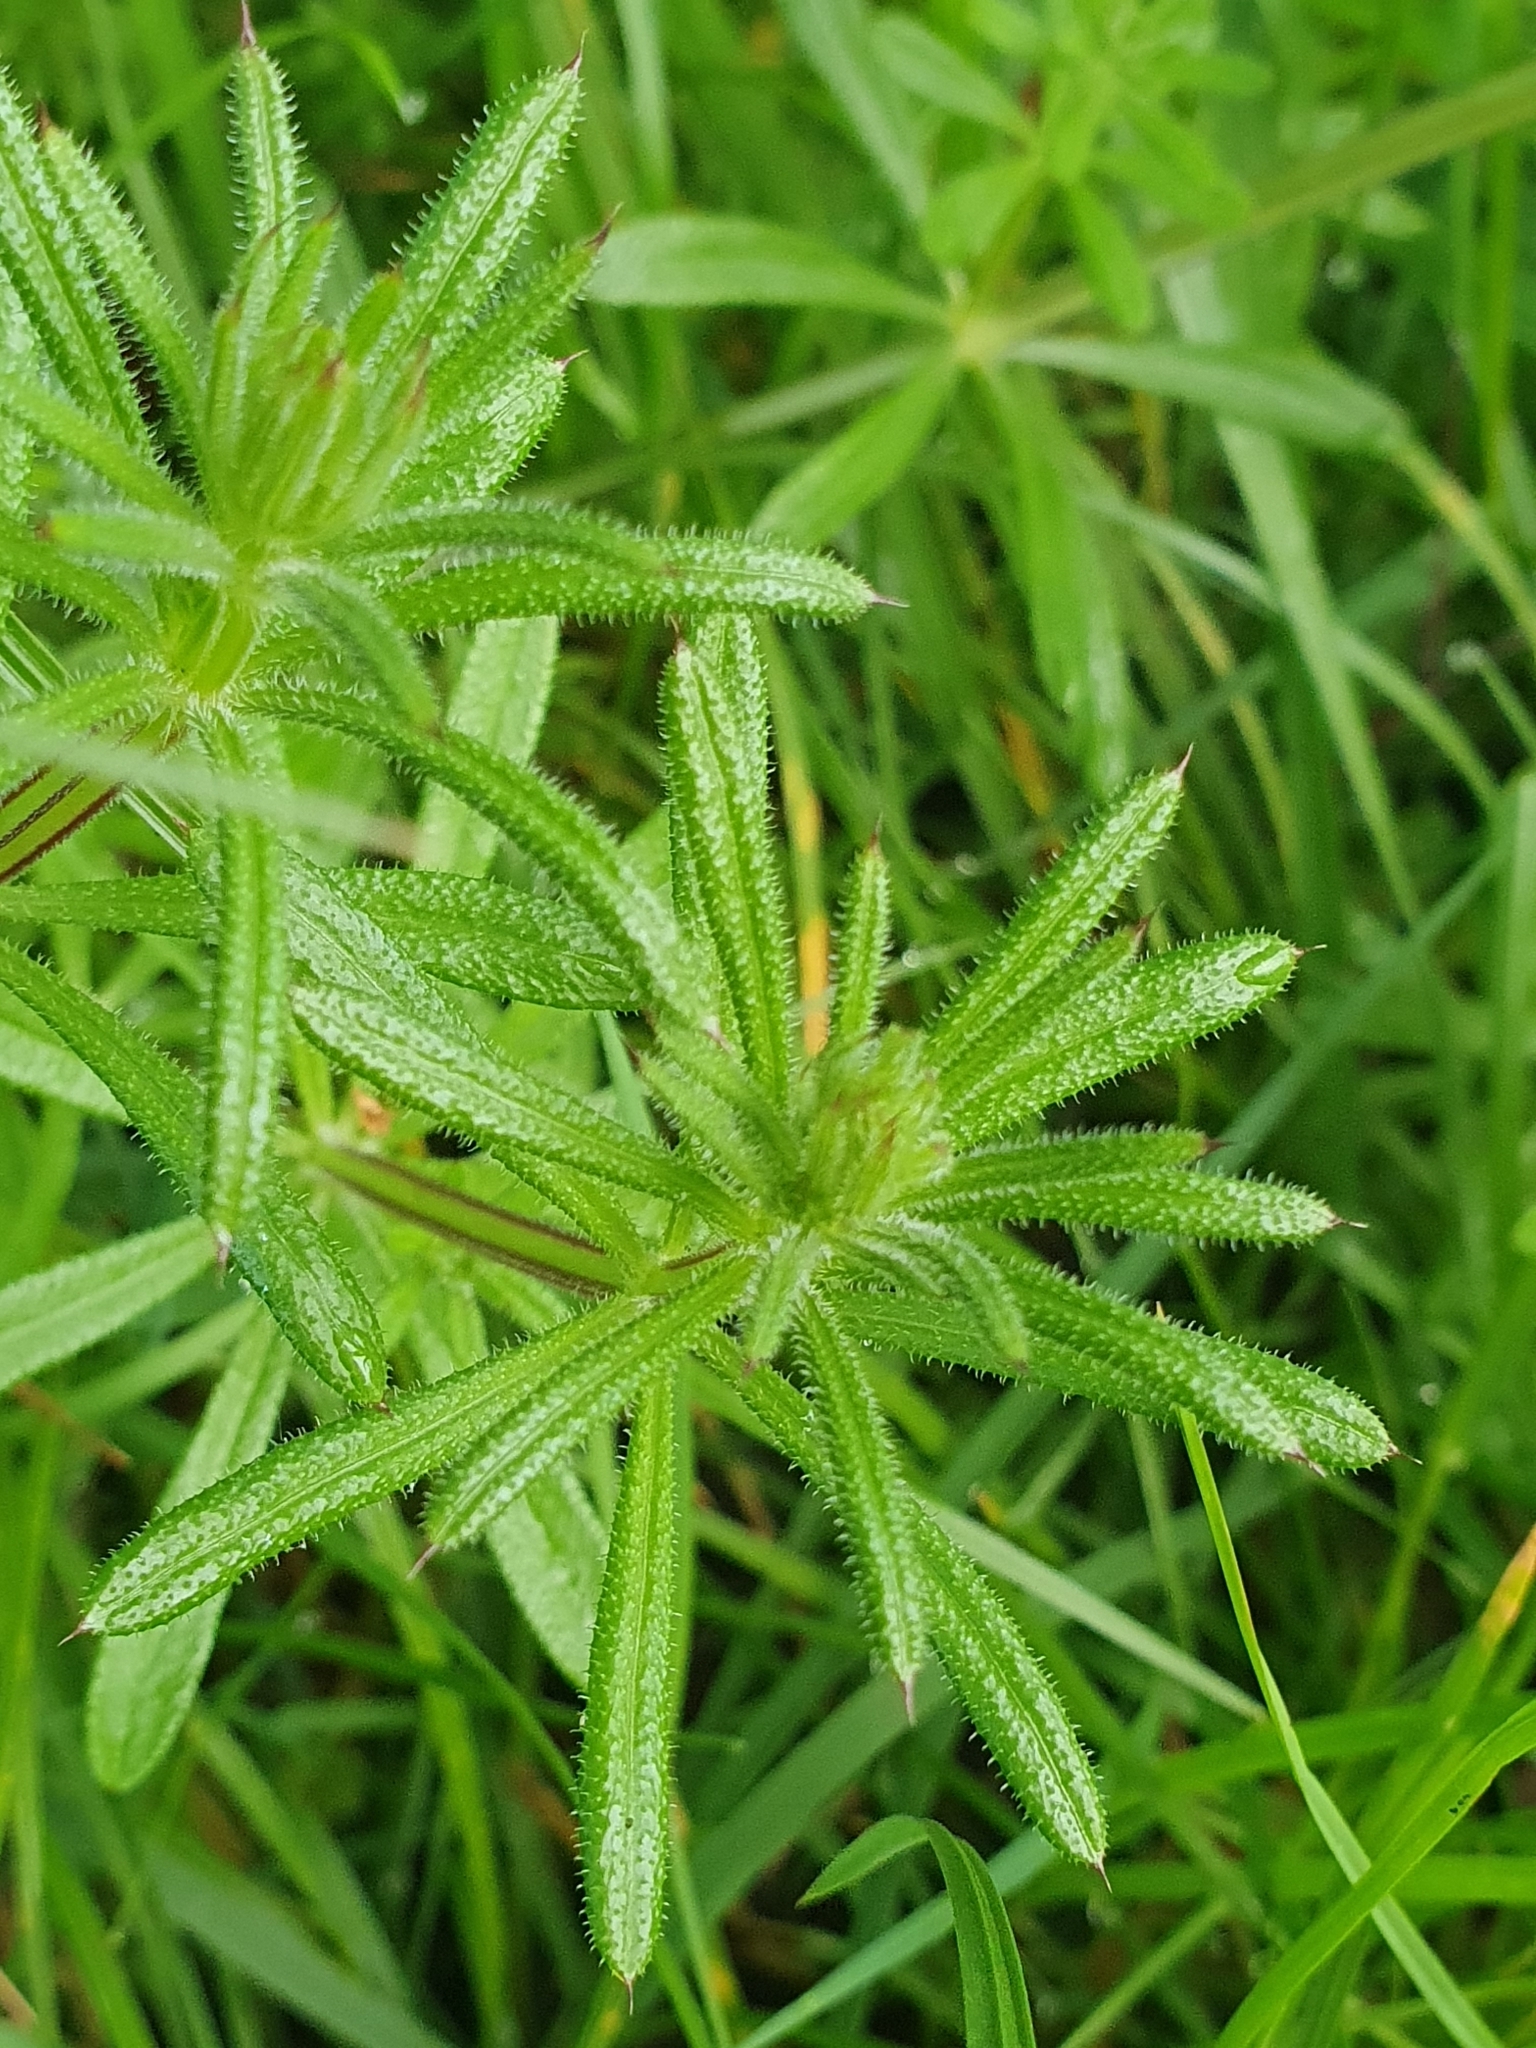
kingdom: Plantae
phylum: Tracheophyta
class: Magnoliopsida
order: Gentianales
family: Rubiaceae
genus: Galium
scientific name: Galium aparine
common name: Cleavers
